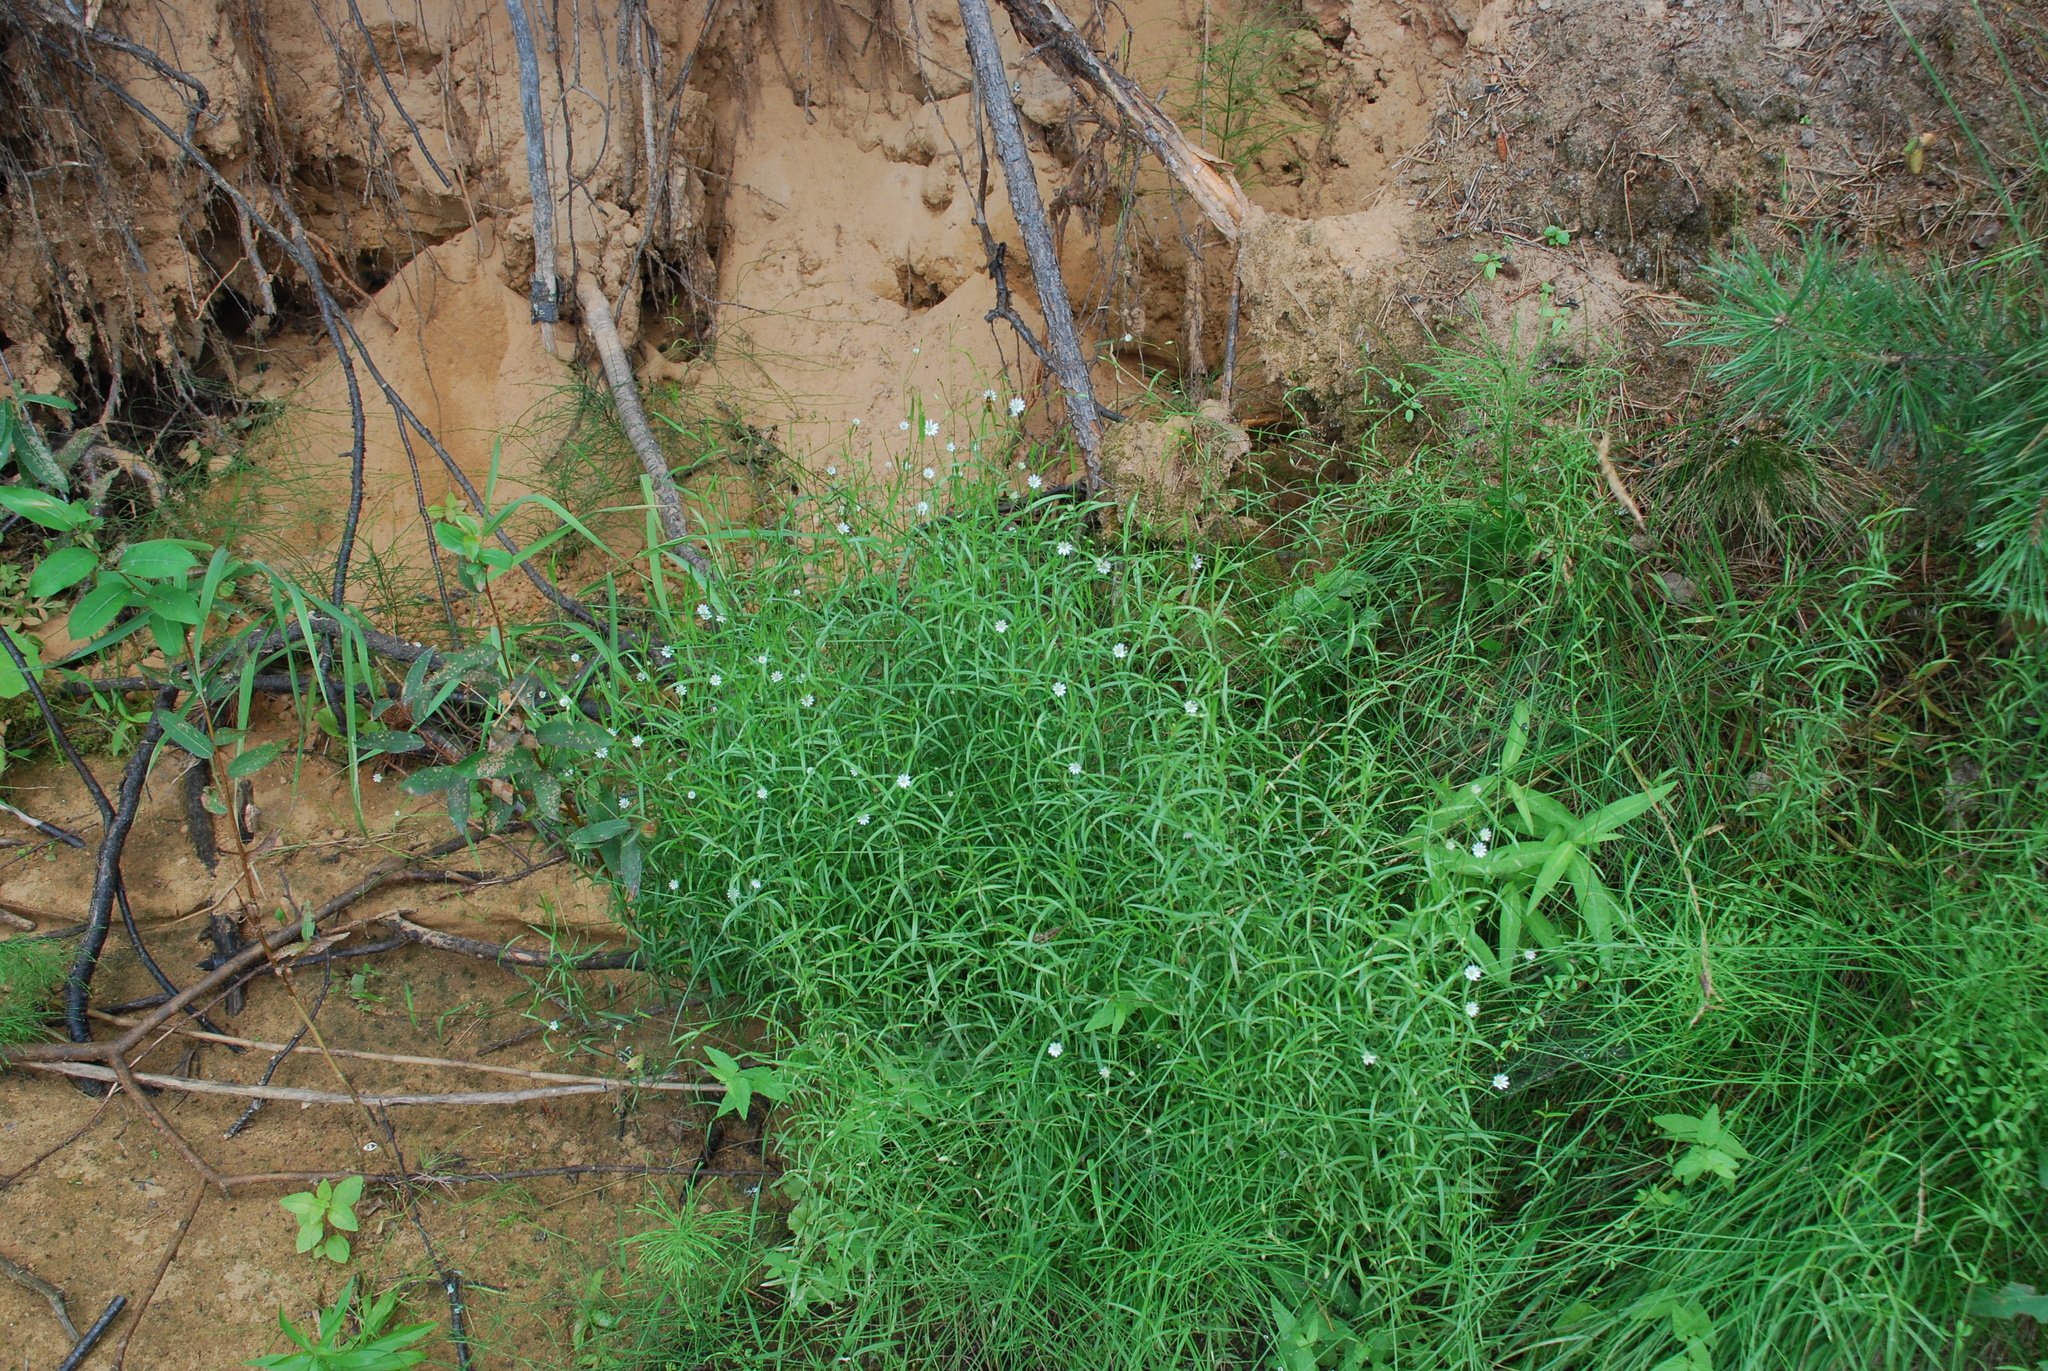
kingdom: Plantae
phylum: Tracheophyta
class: Magnoliopsida
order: Caryophyllales
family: Caryophyllaceae
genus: Stellaria
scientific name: Stellaria longifolia
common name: Long-leaved chickweed
